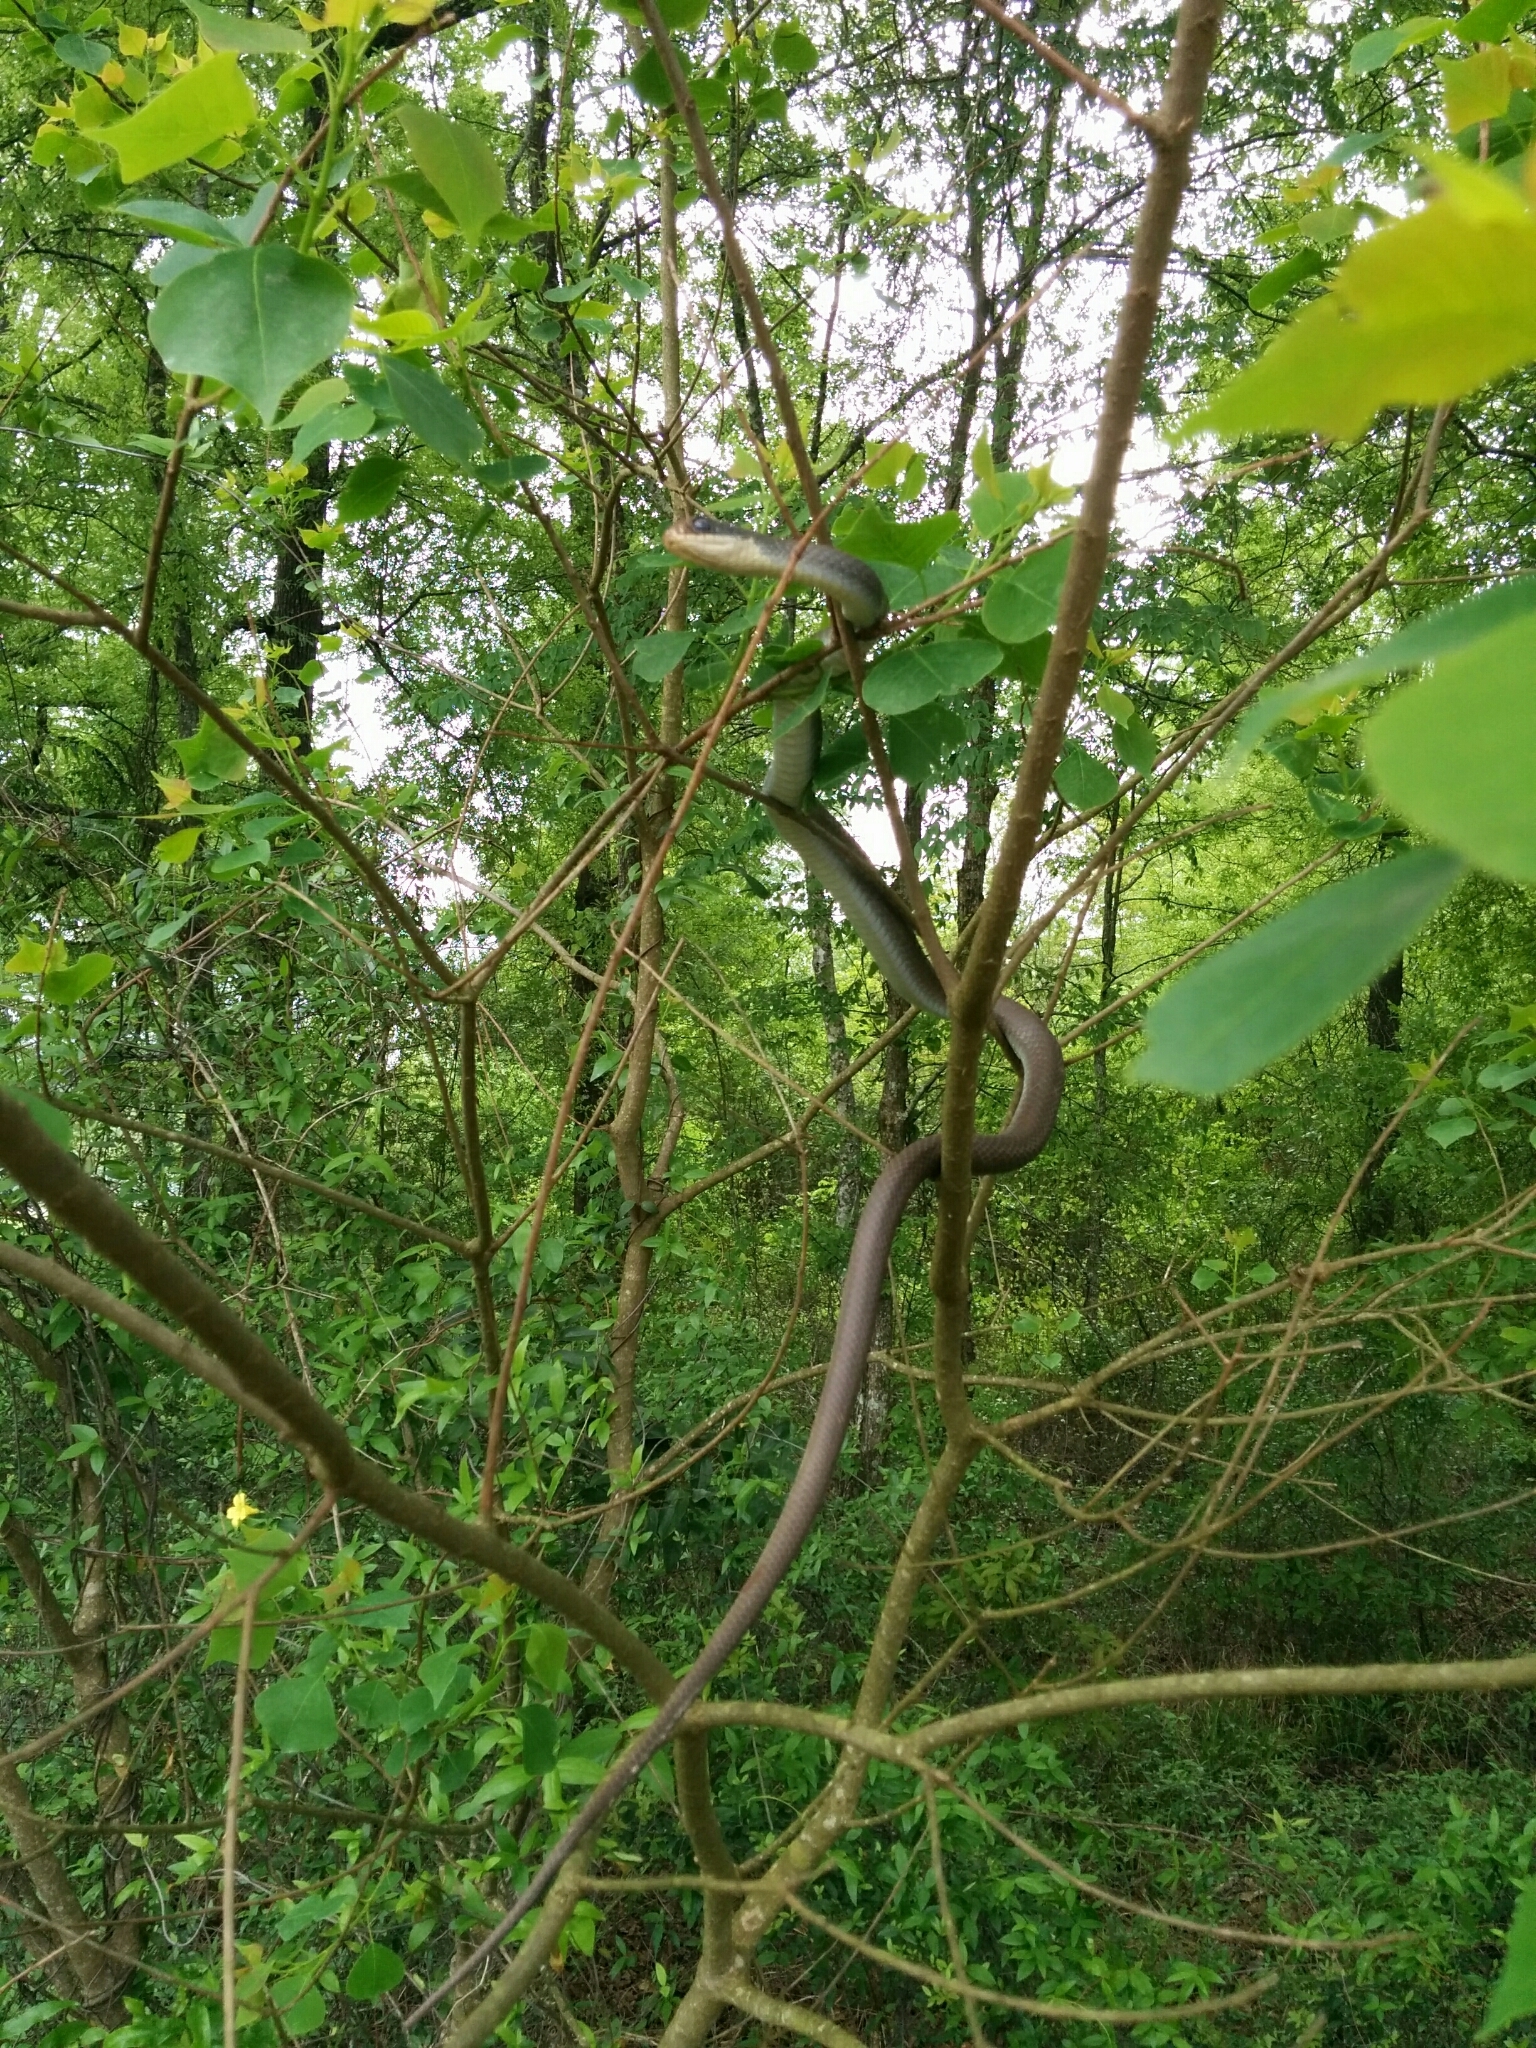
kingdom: Animalia
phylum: Chordata
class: Squamata
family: Colubridae
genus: Coluber
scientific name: Coluber constrictor
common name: Eastern racer
